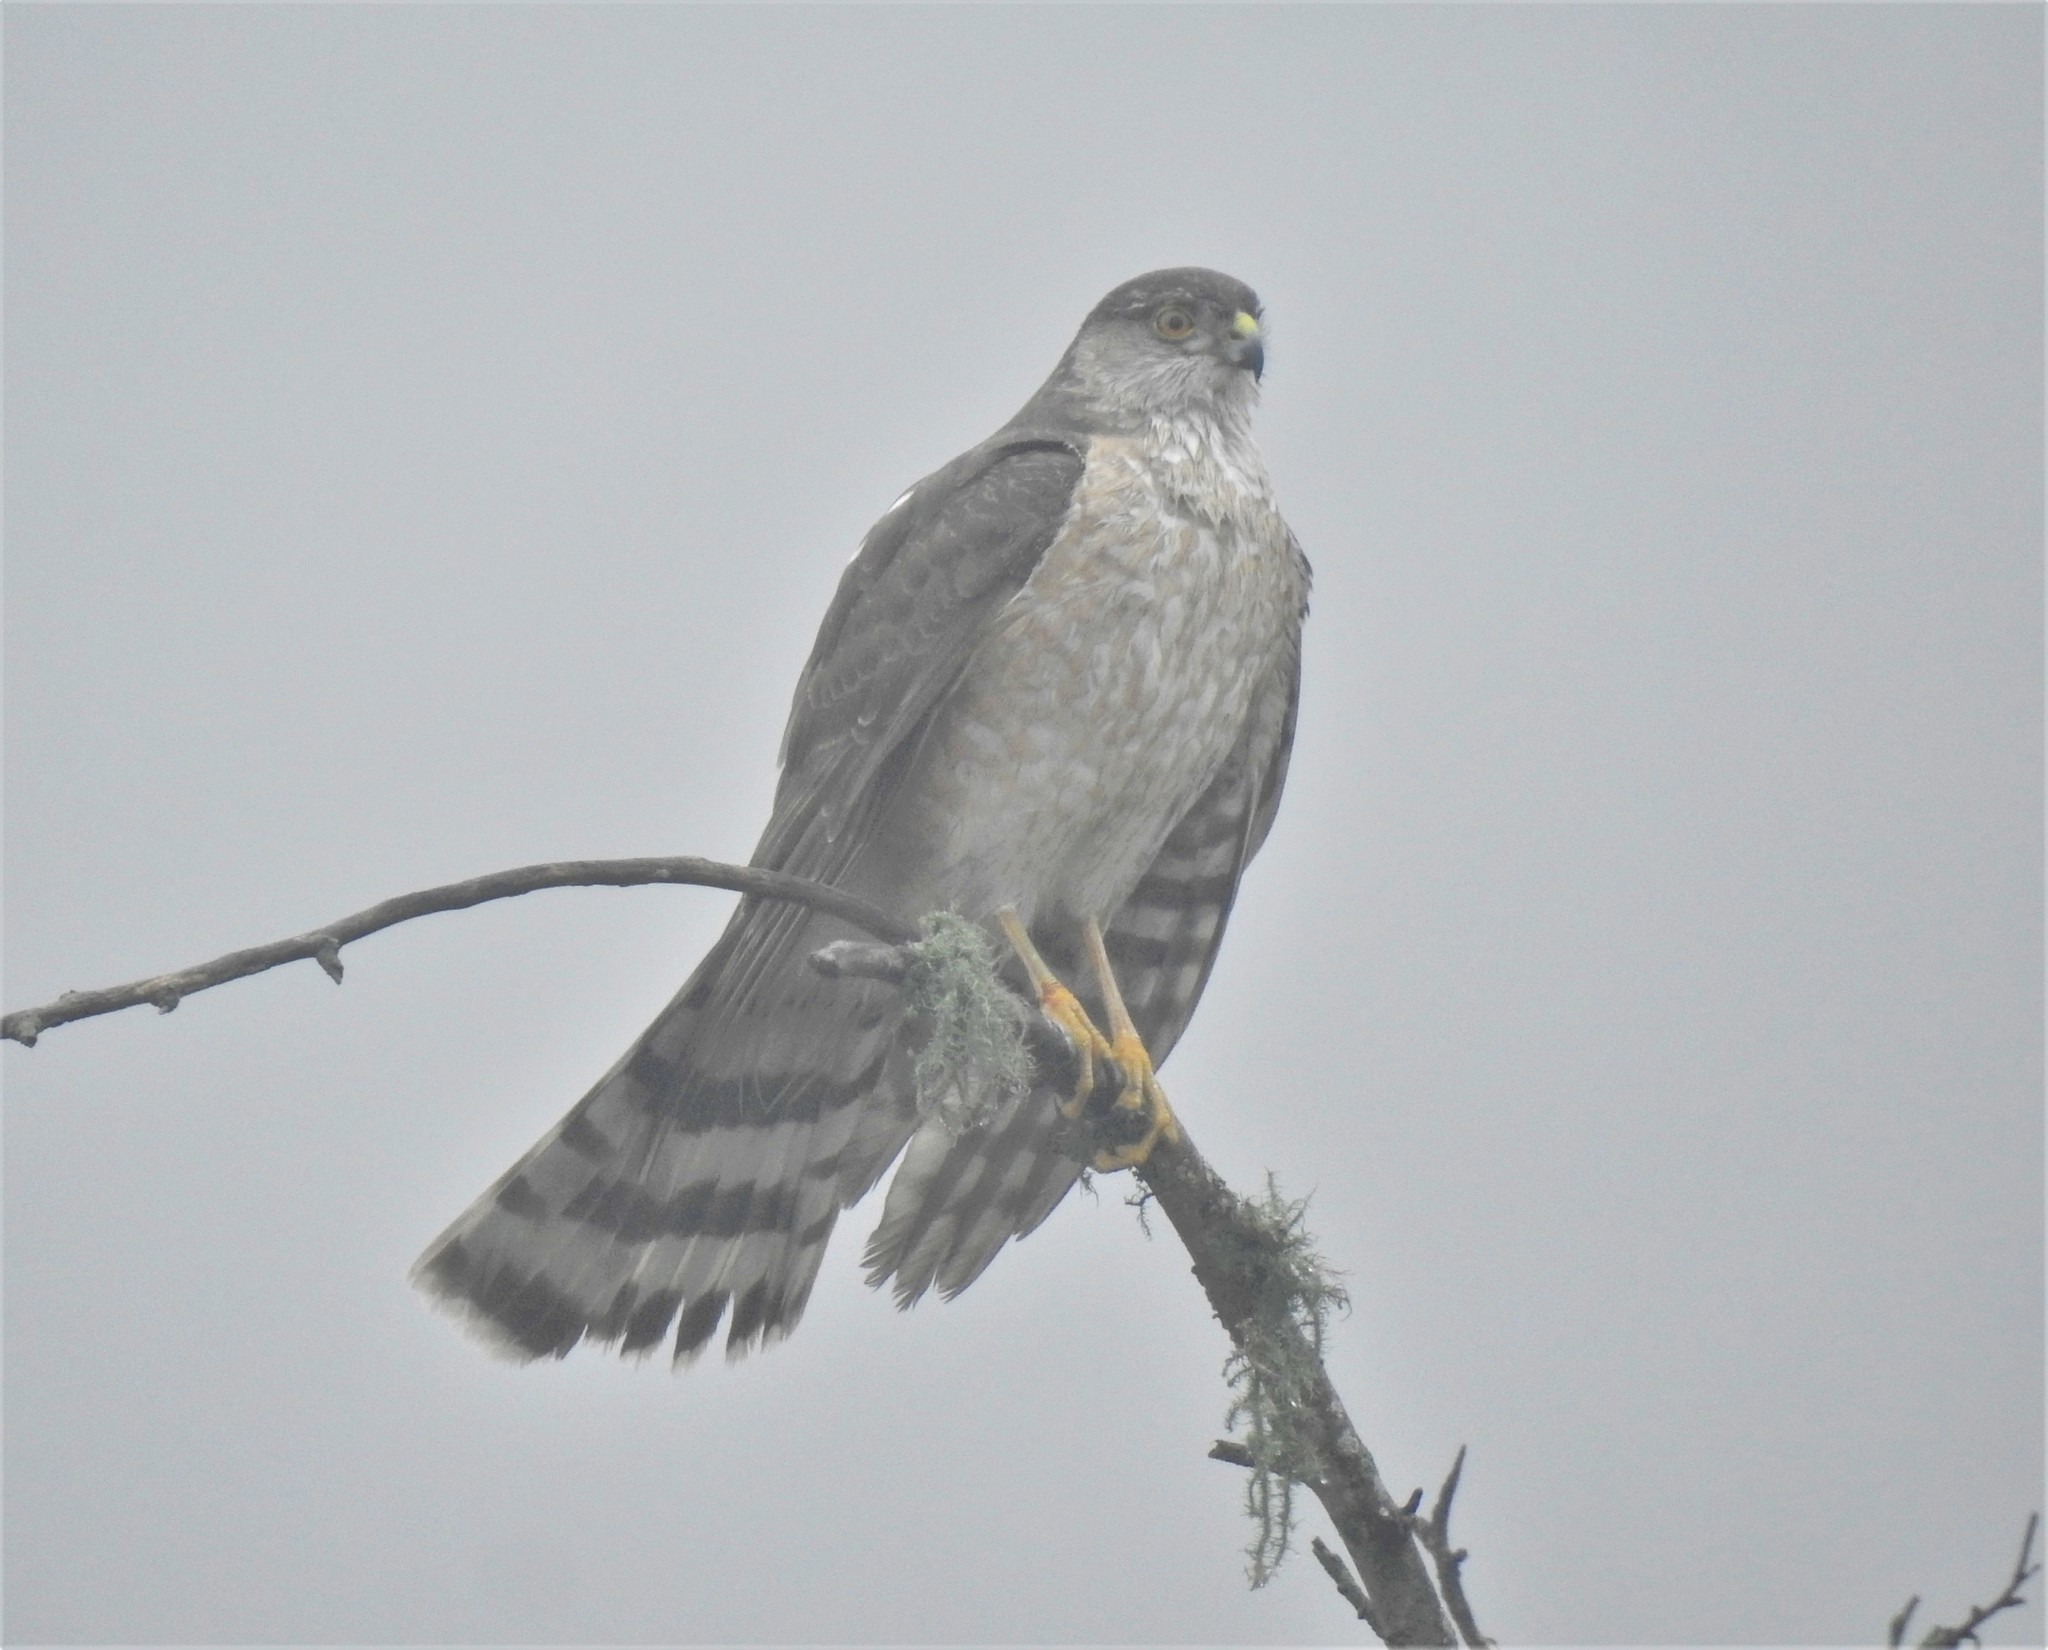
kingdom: Animalia
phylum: Chordata
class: Aves
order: Accipitriformes
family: Accipitridae
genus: Accipiter
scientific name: Accipiter striatus
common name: Sharp-shinned hawk
